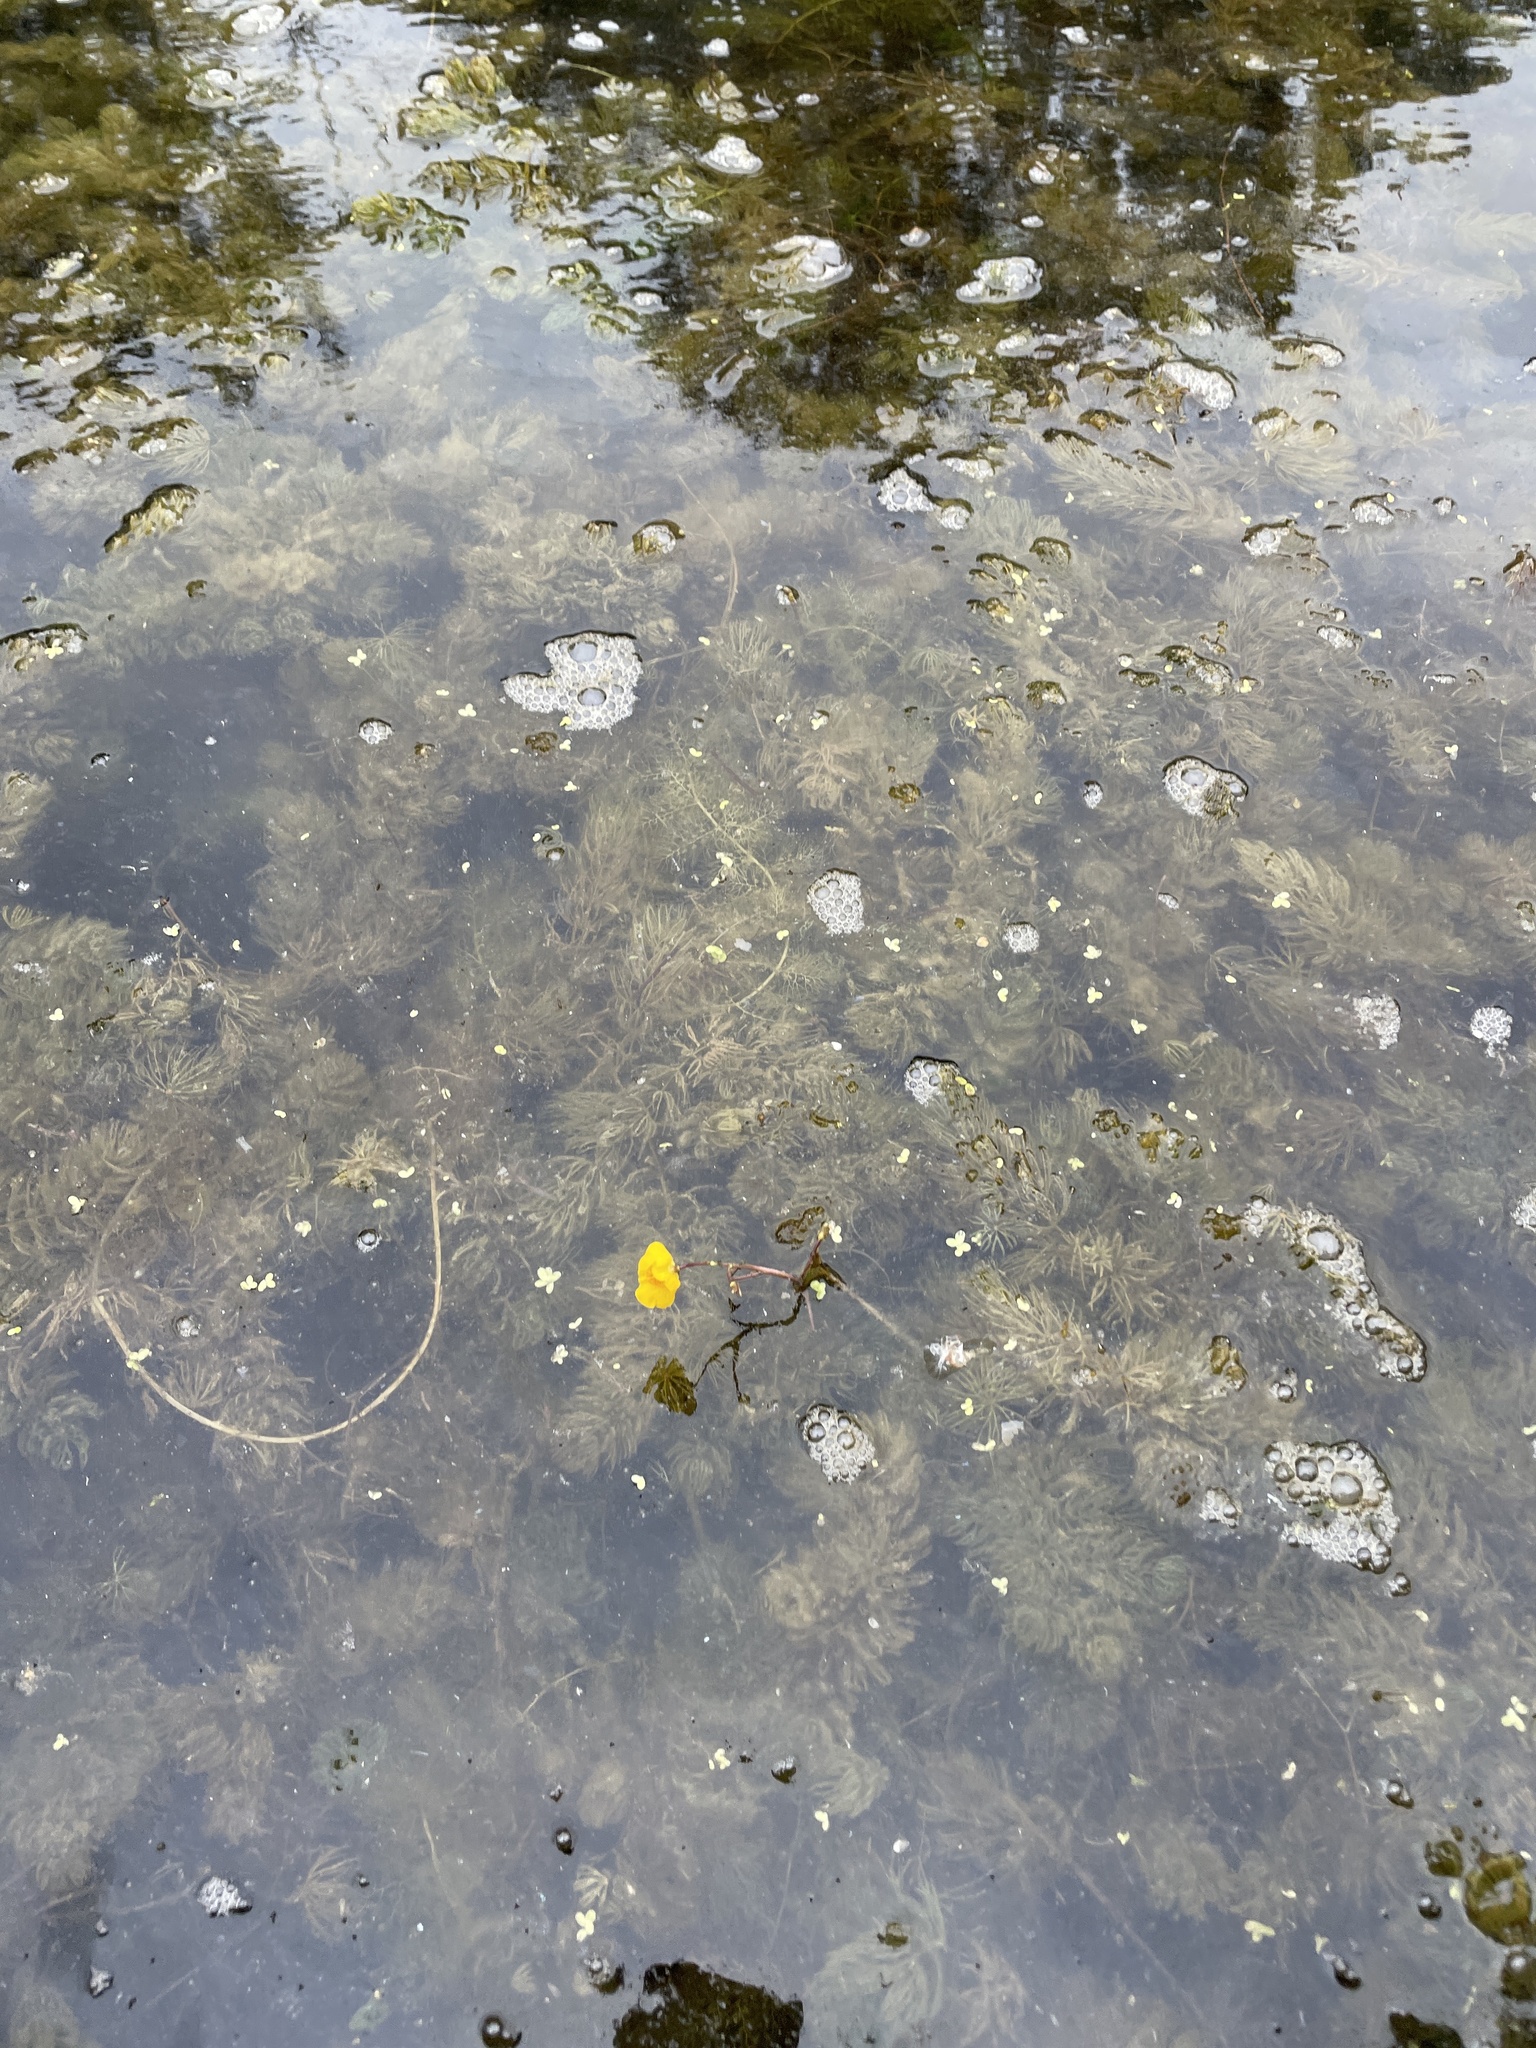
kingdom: Plantae
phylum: Tracheophyta
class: Magnoliopsida
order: Lamiales
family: Lentibulariaceae
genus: Utricularia
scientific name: Utricularia macrorhiza
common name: Common bladderwort
